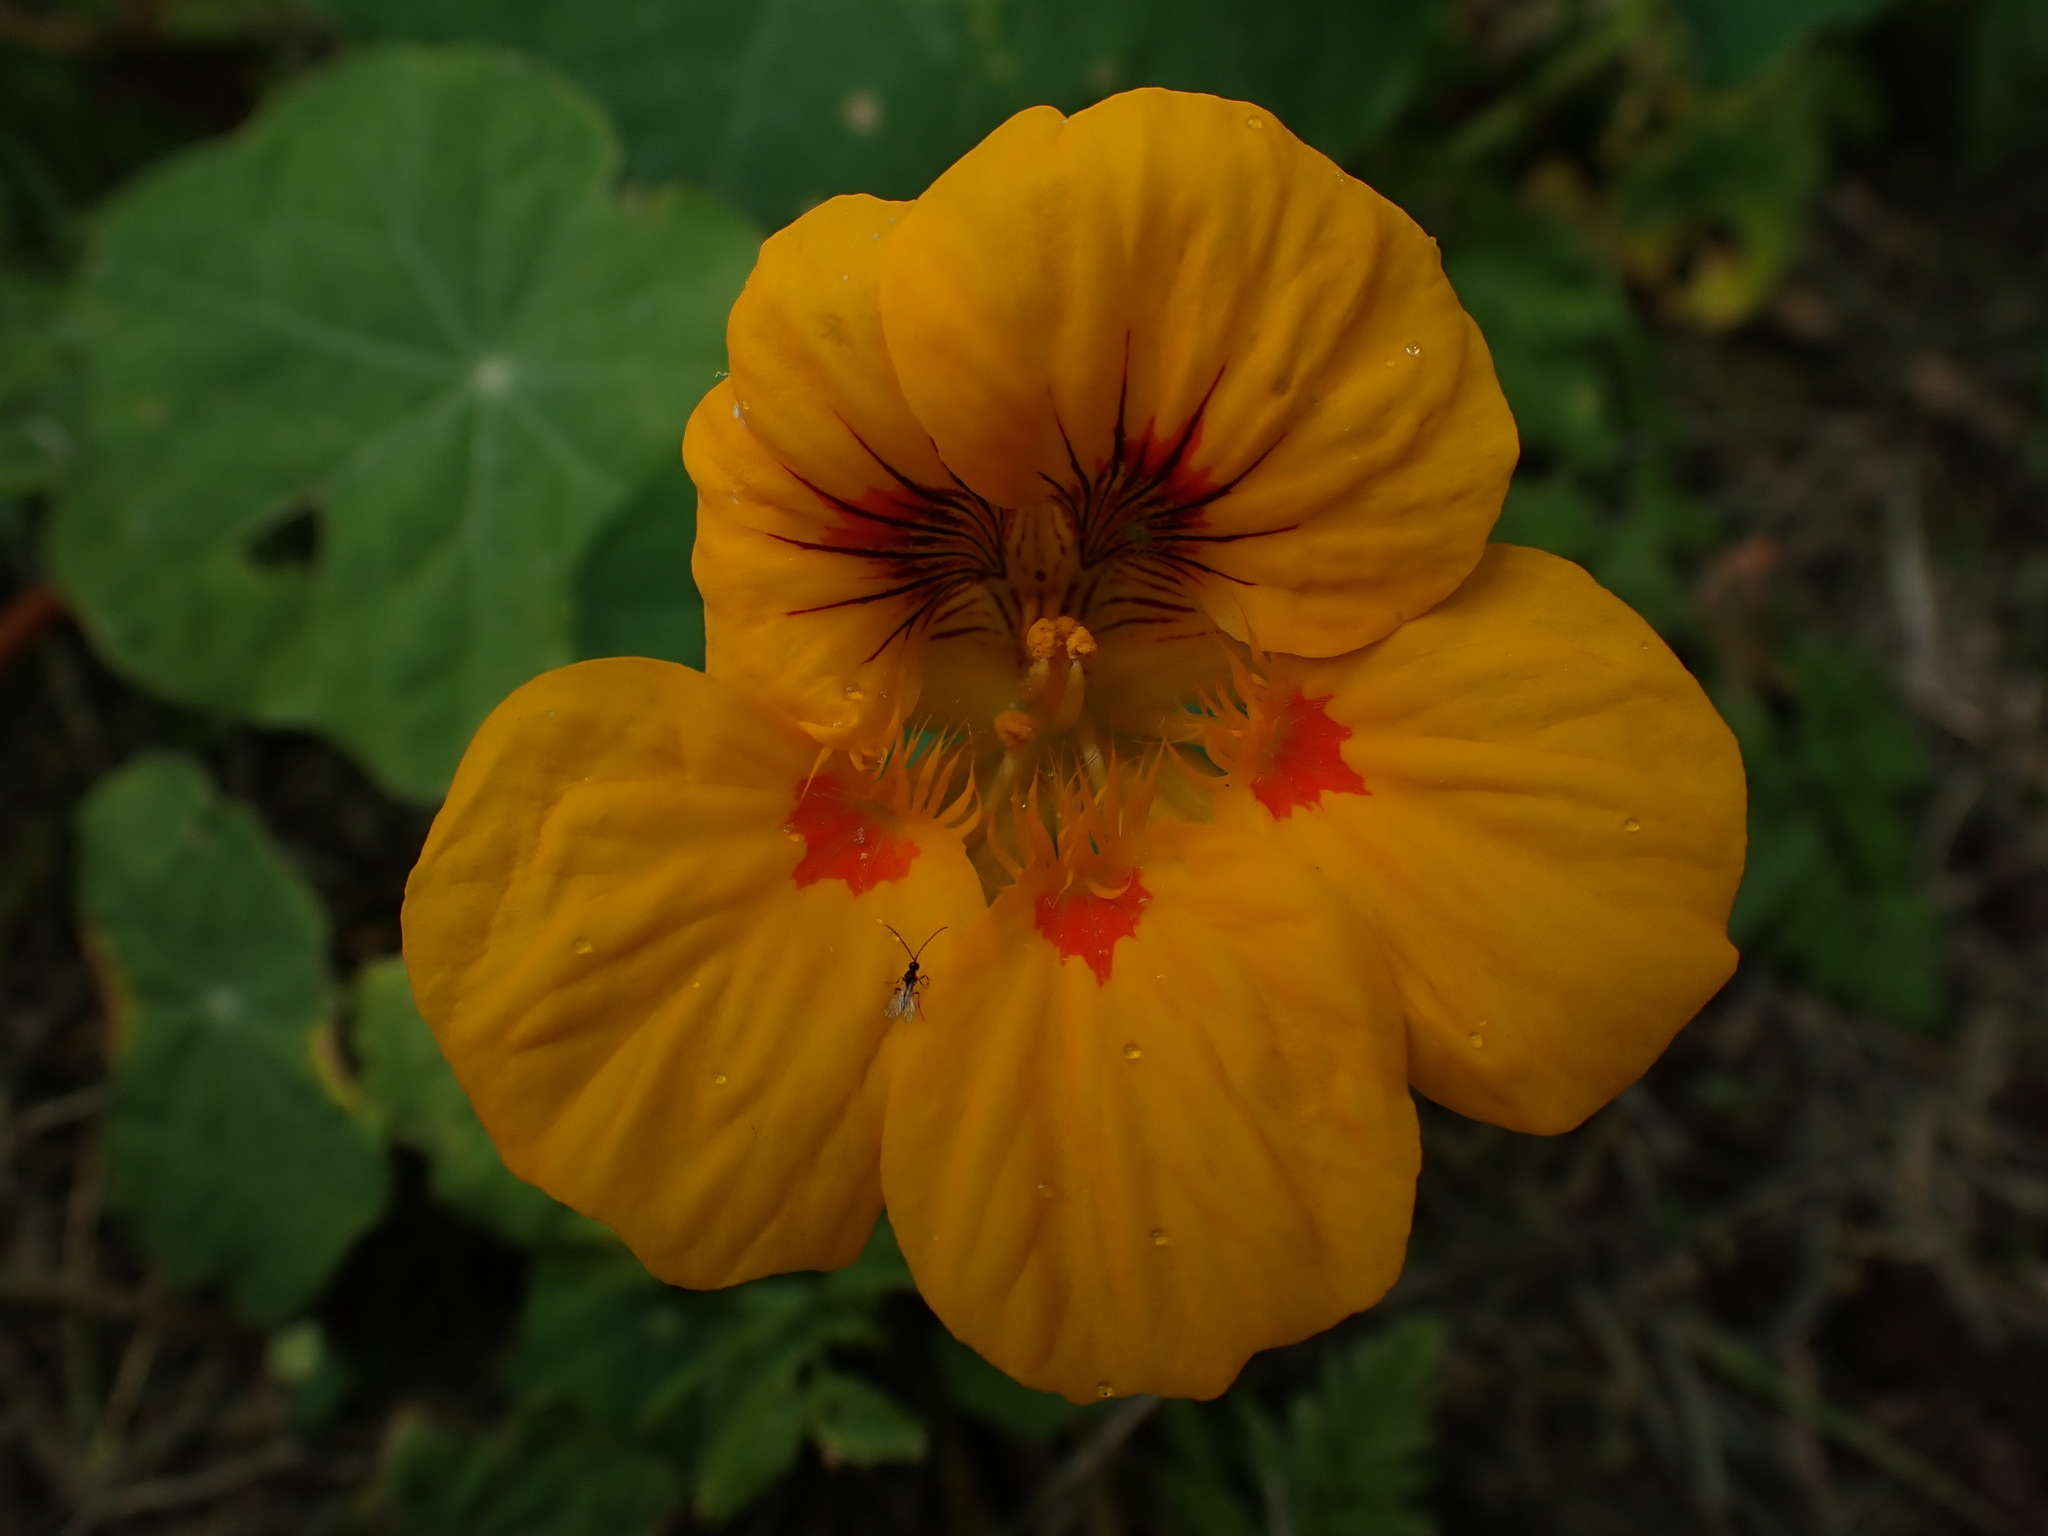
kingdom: Plantae
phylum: Tracheophyta
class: Magnoliopsida
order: Brassicales
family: Tropaeolaceae
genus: Tropaeolum
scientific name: Tropaeolum majus
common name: Nasturtium
